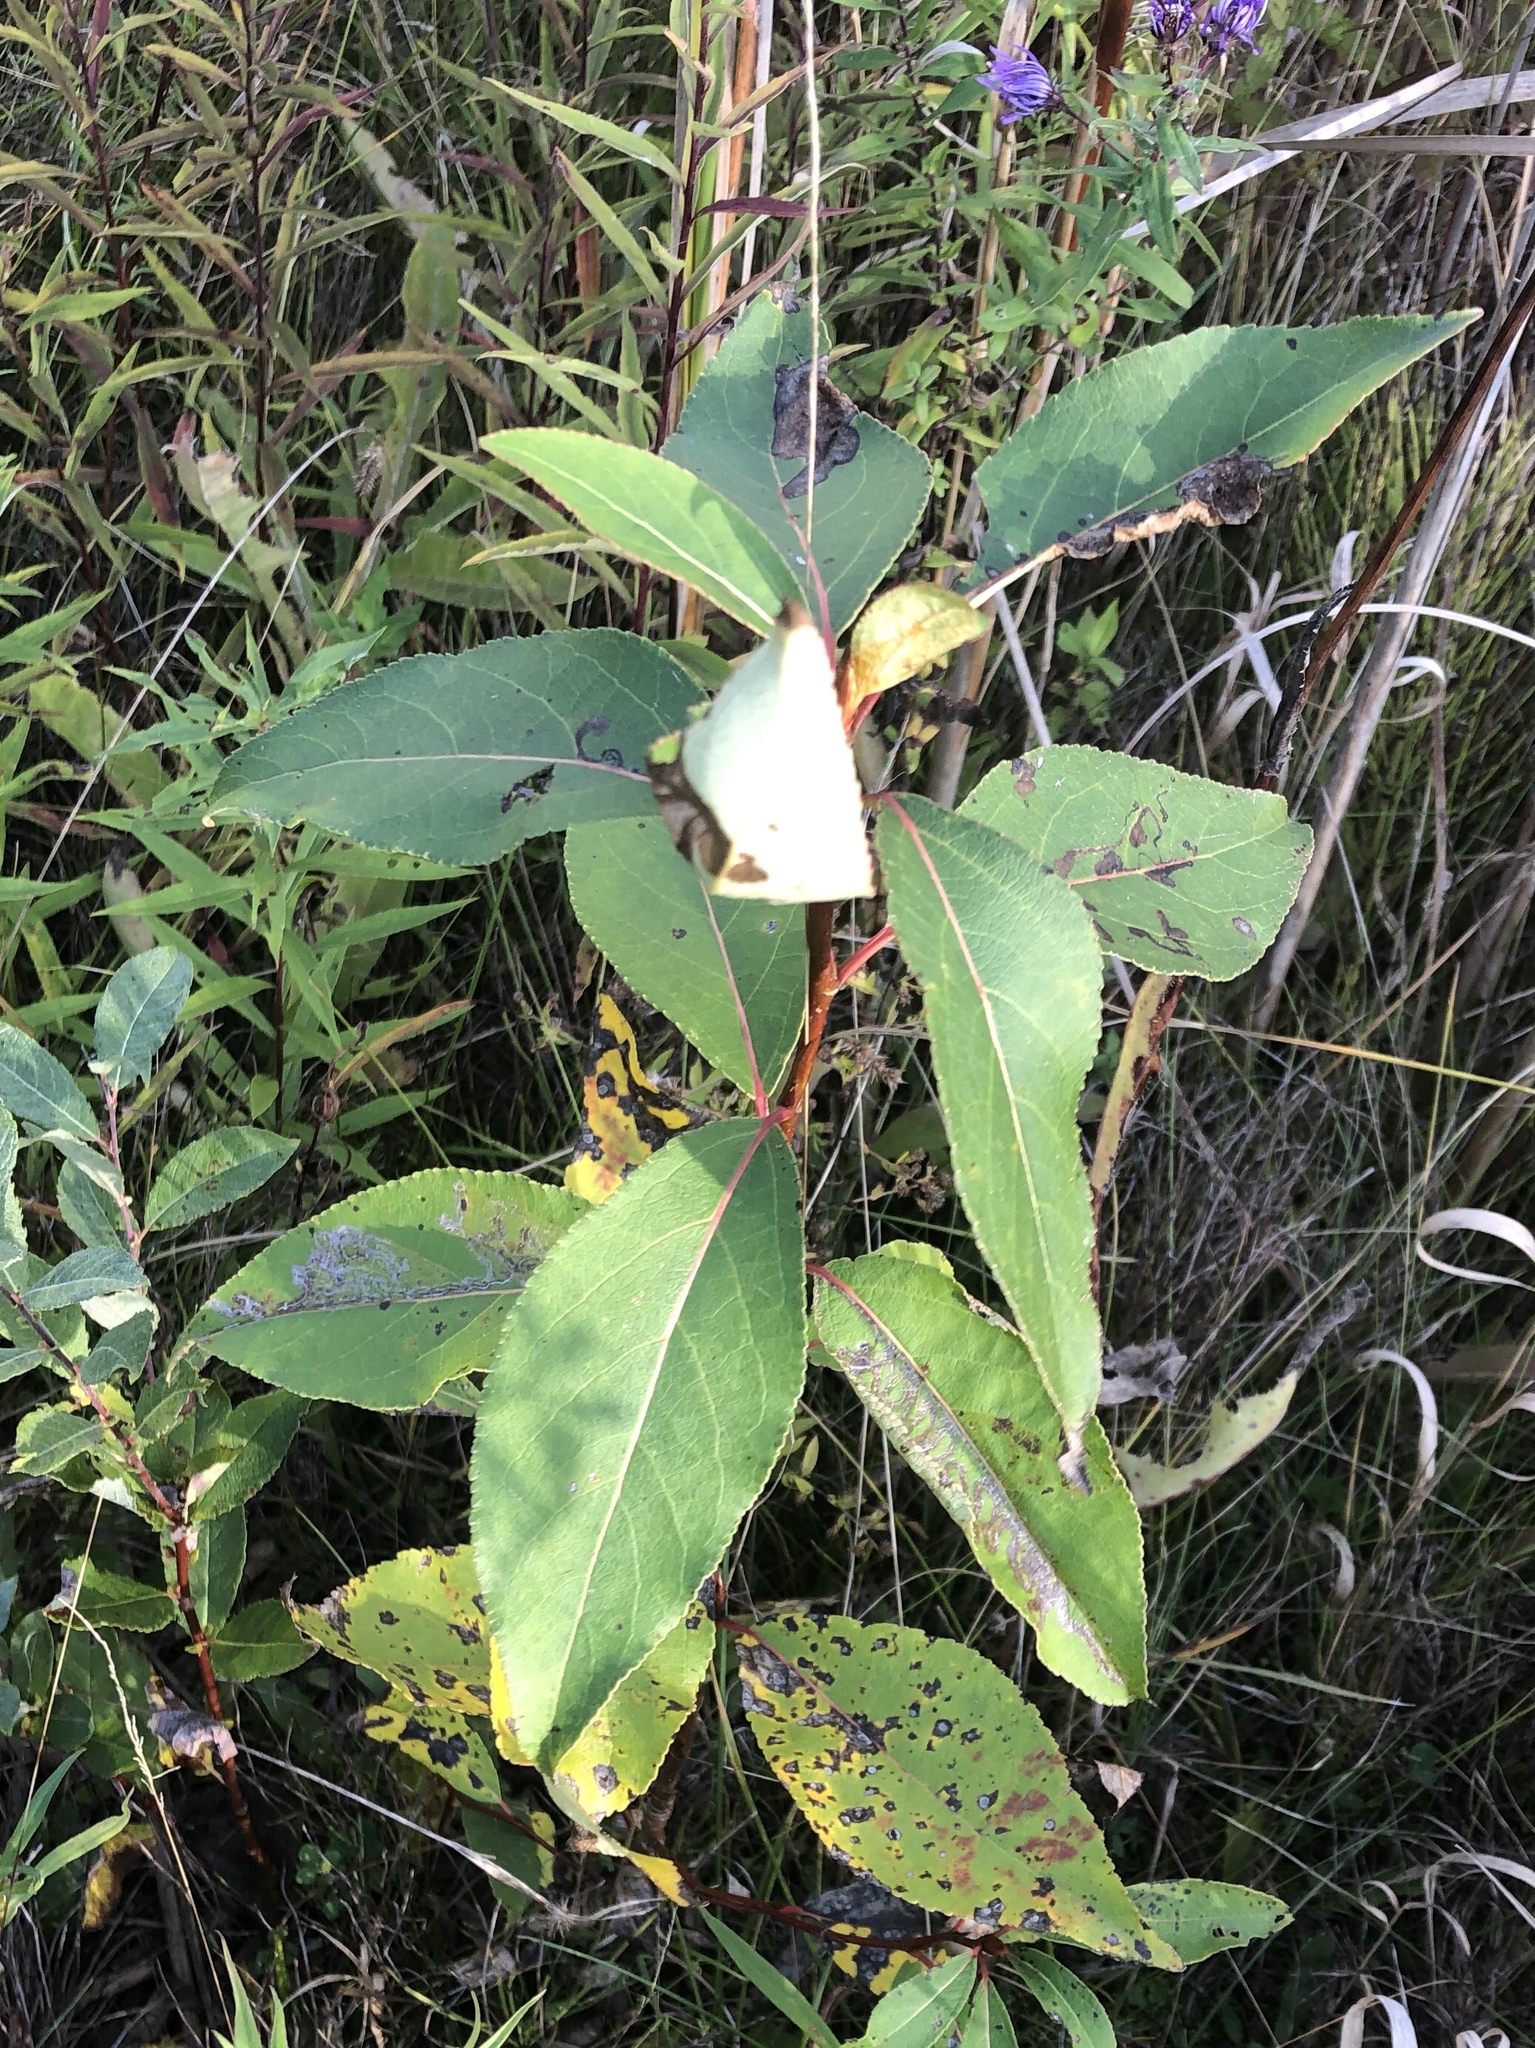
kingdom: Plantae
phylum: Tracheophyta
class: Magnoliopsida
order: Malpighiales
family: Salicaceae
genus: Populus
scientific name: Populus balsamifera
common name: Balsam poplar
